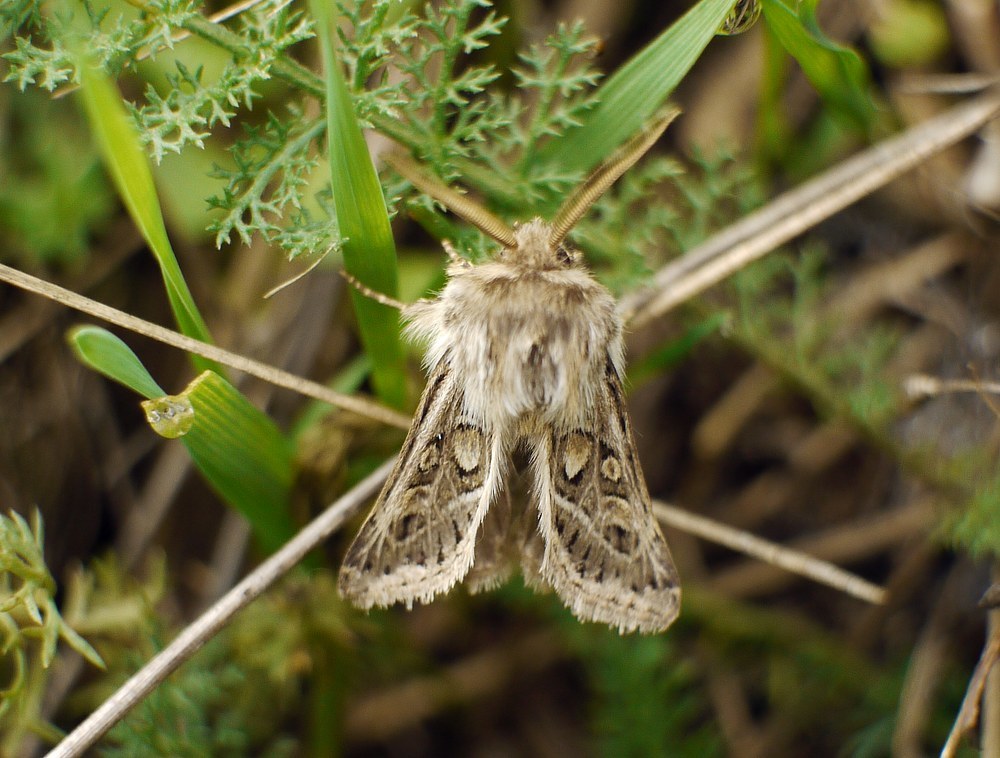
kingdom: Animalia
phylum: Arthropoda
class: Insecta
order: Lepidoptera
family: Noctuidae
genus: Ulochlaena
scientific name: Ulochlaena hirta
